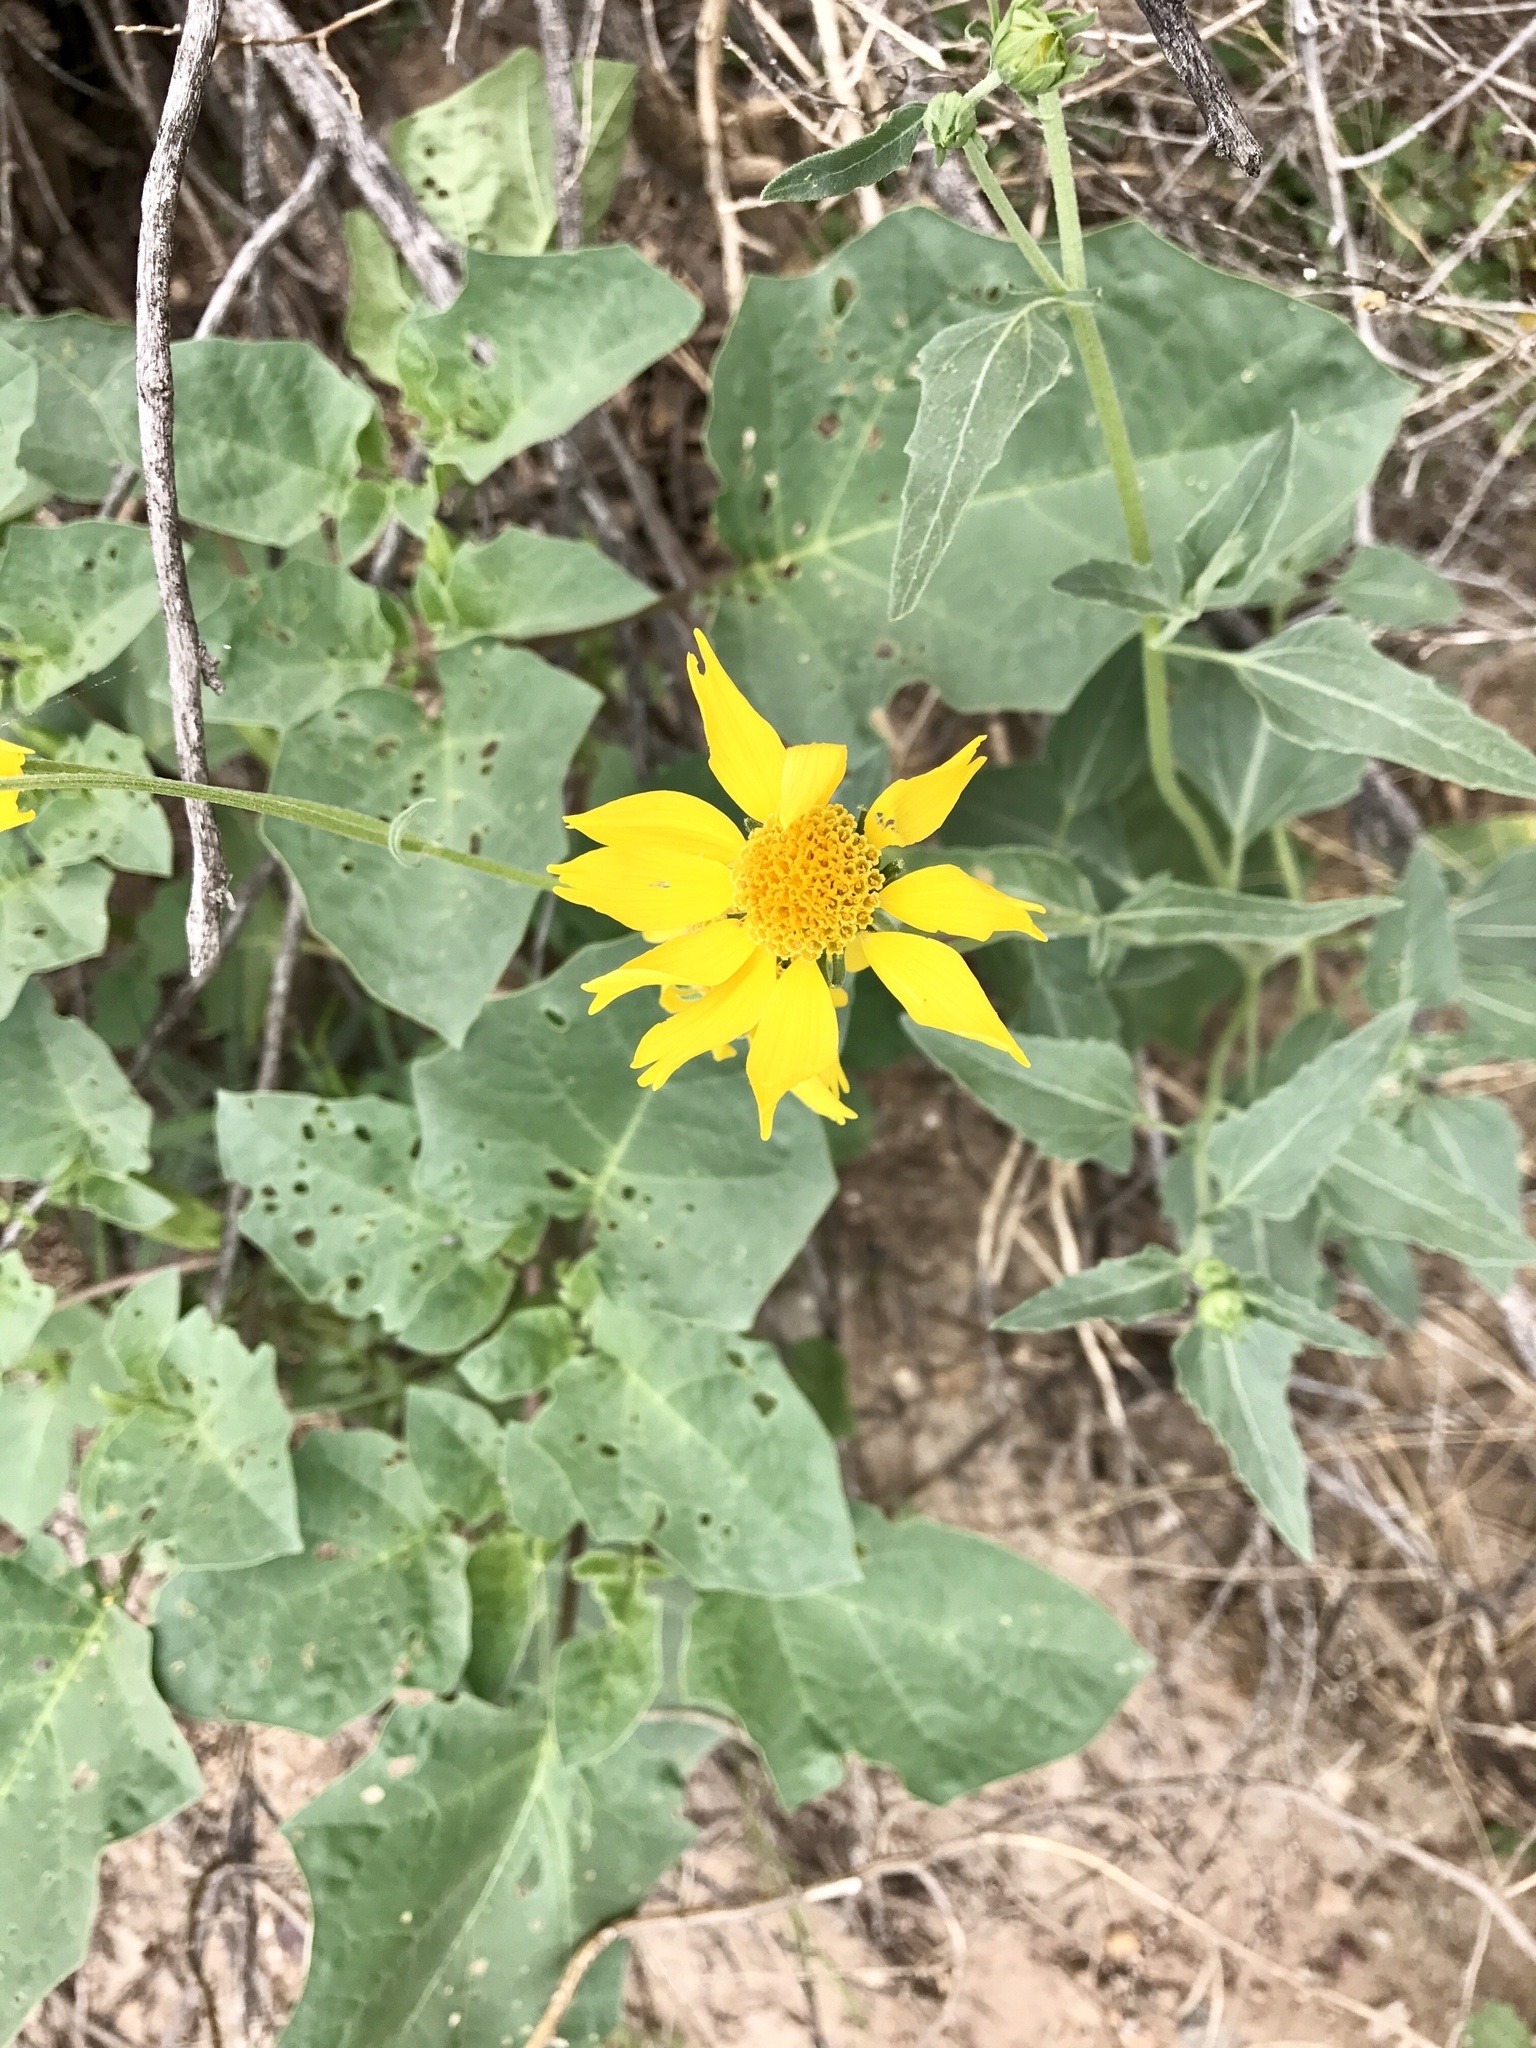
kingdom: Plantae
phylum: Tracheophyta
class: Magnoliopsida
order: Asterales
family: Asteraceae
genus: Verbesina
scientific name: Verbesina encelioides
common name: Golden crownbeard
